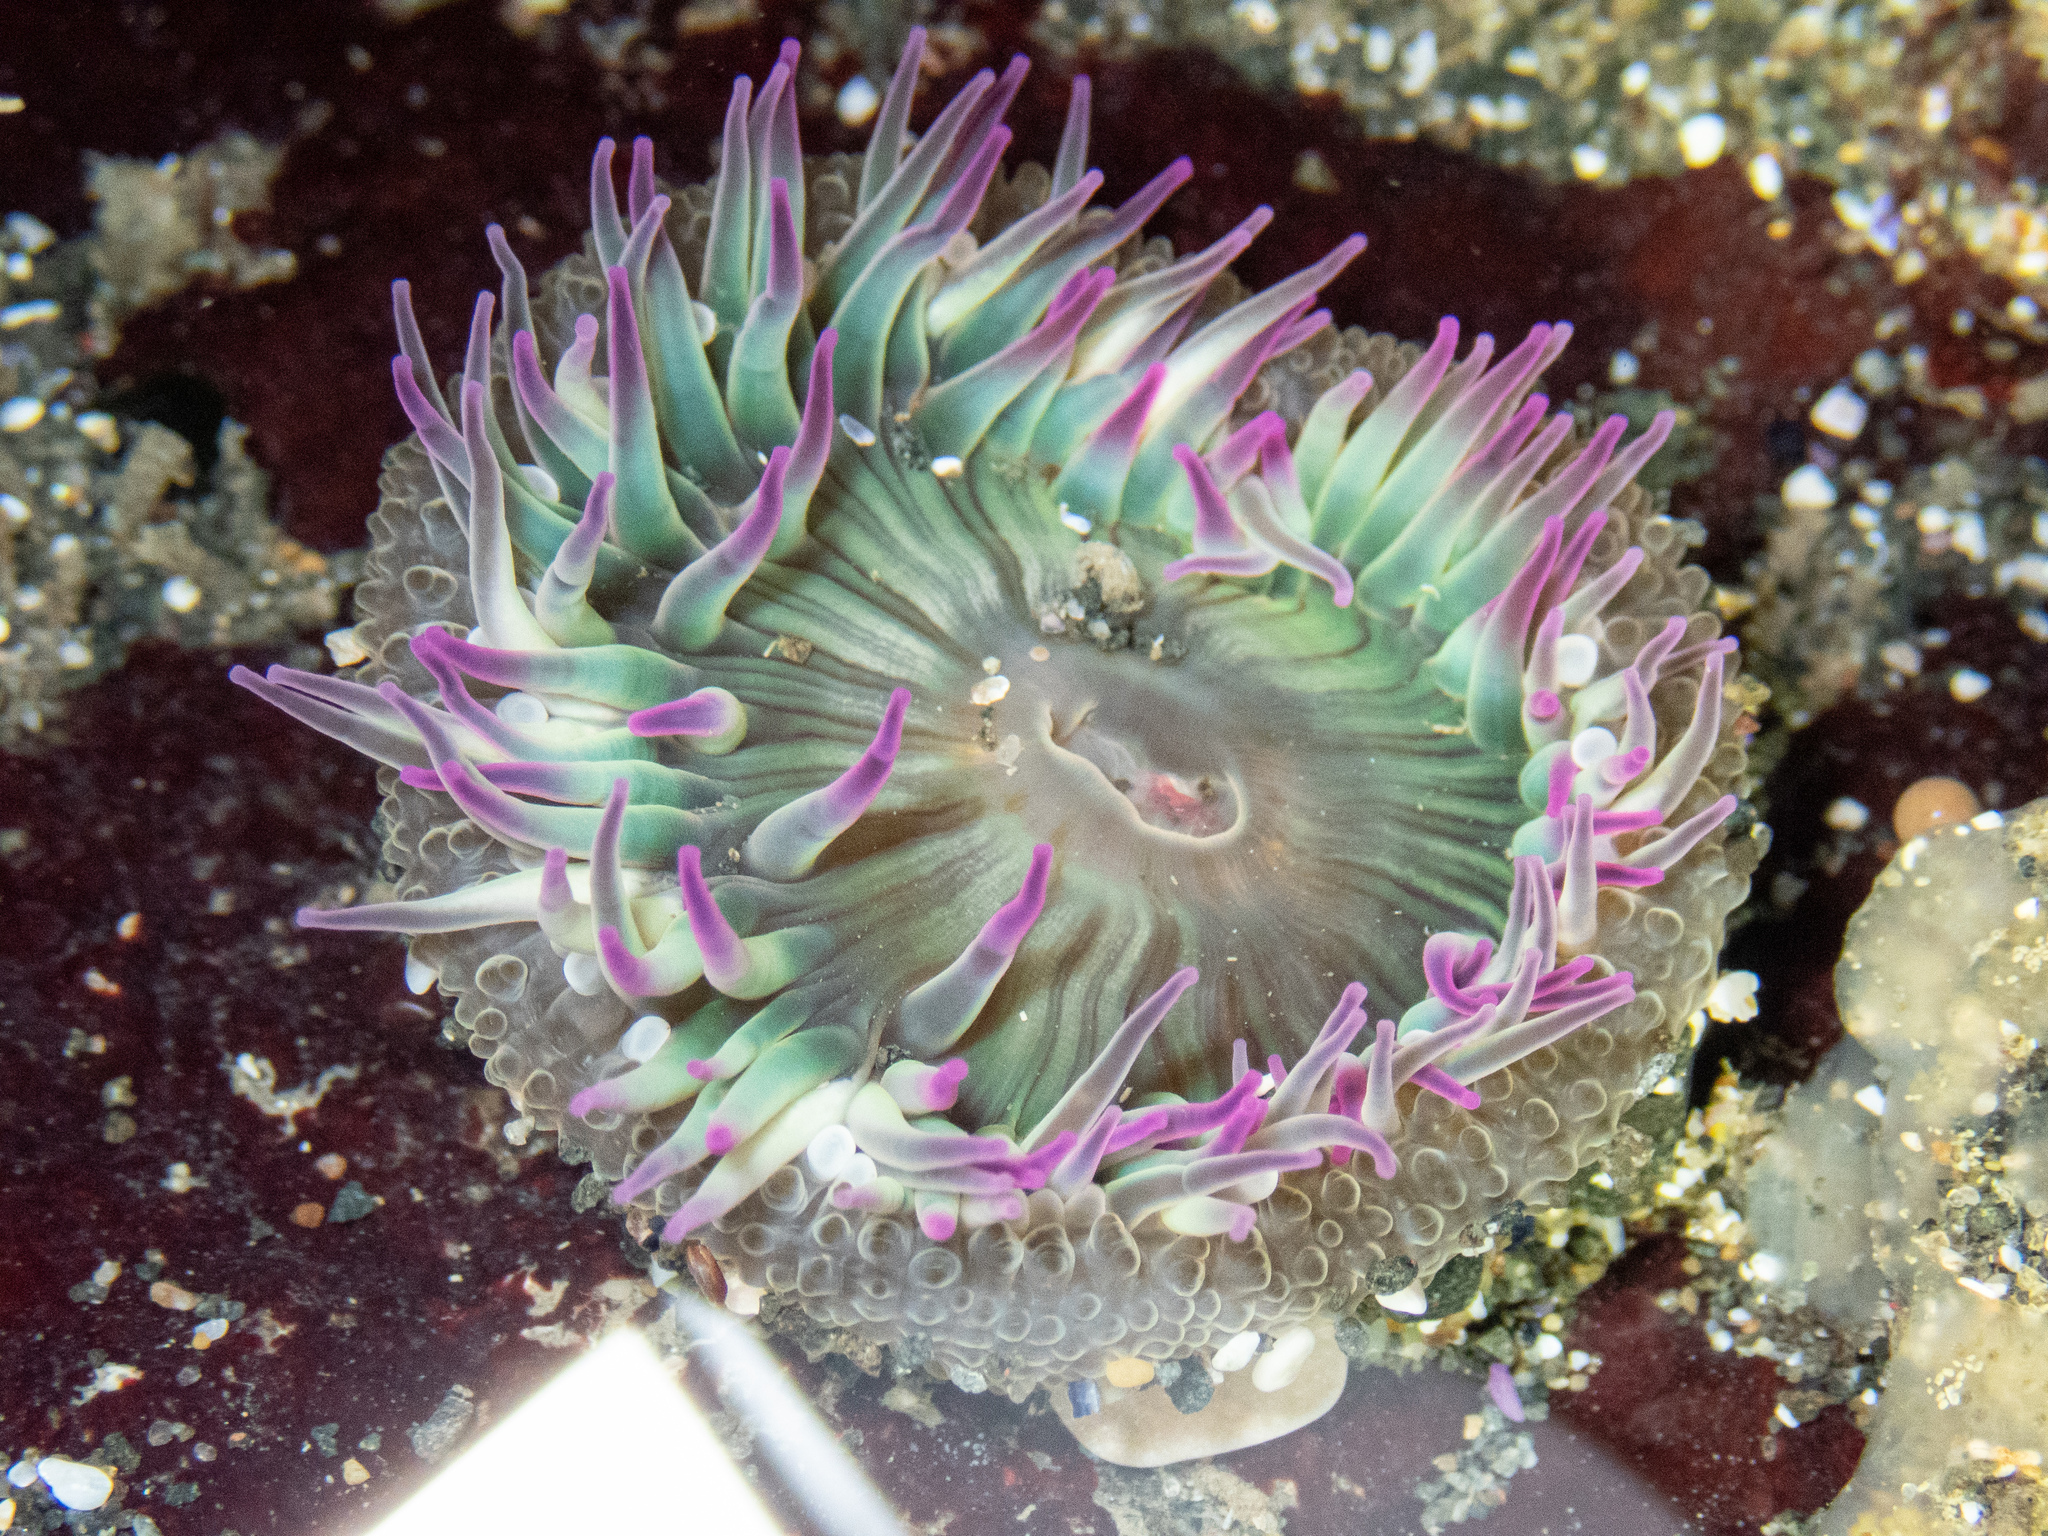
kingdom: Animalia
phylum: Cnidaria
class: Anthozoa
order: Actiniaria
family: Actiniidae
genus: Anthopleura
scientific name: Anthopleura elegantissima
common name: Clonal anemone
